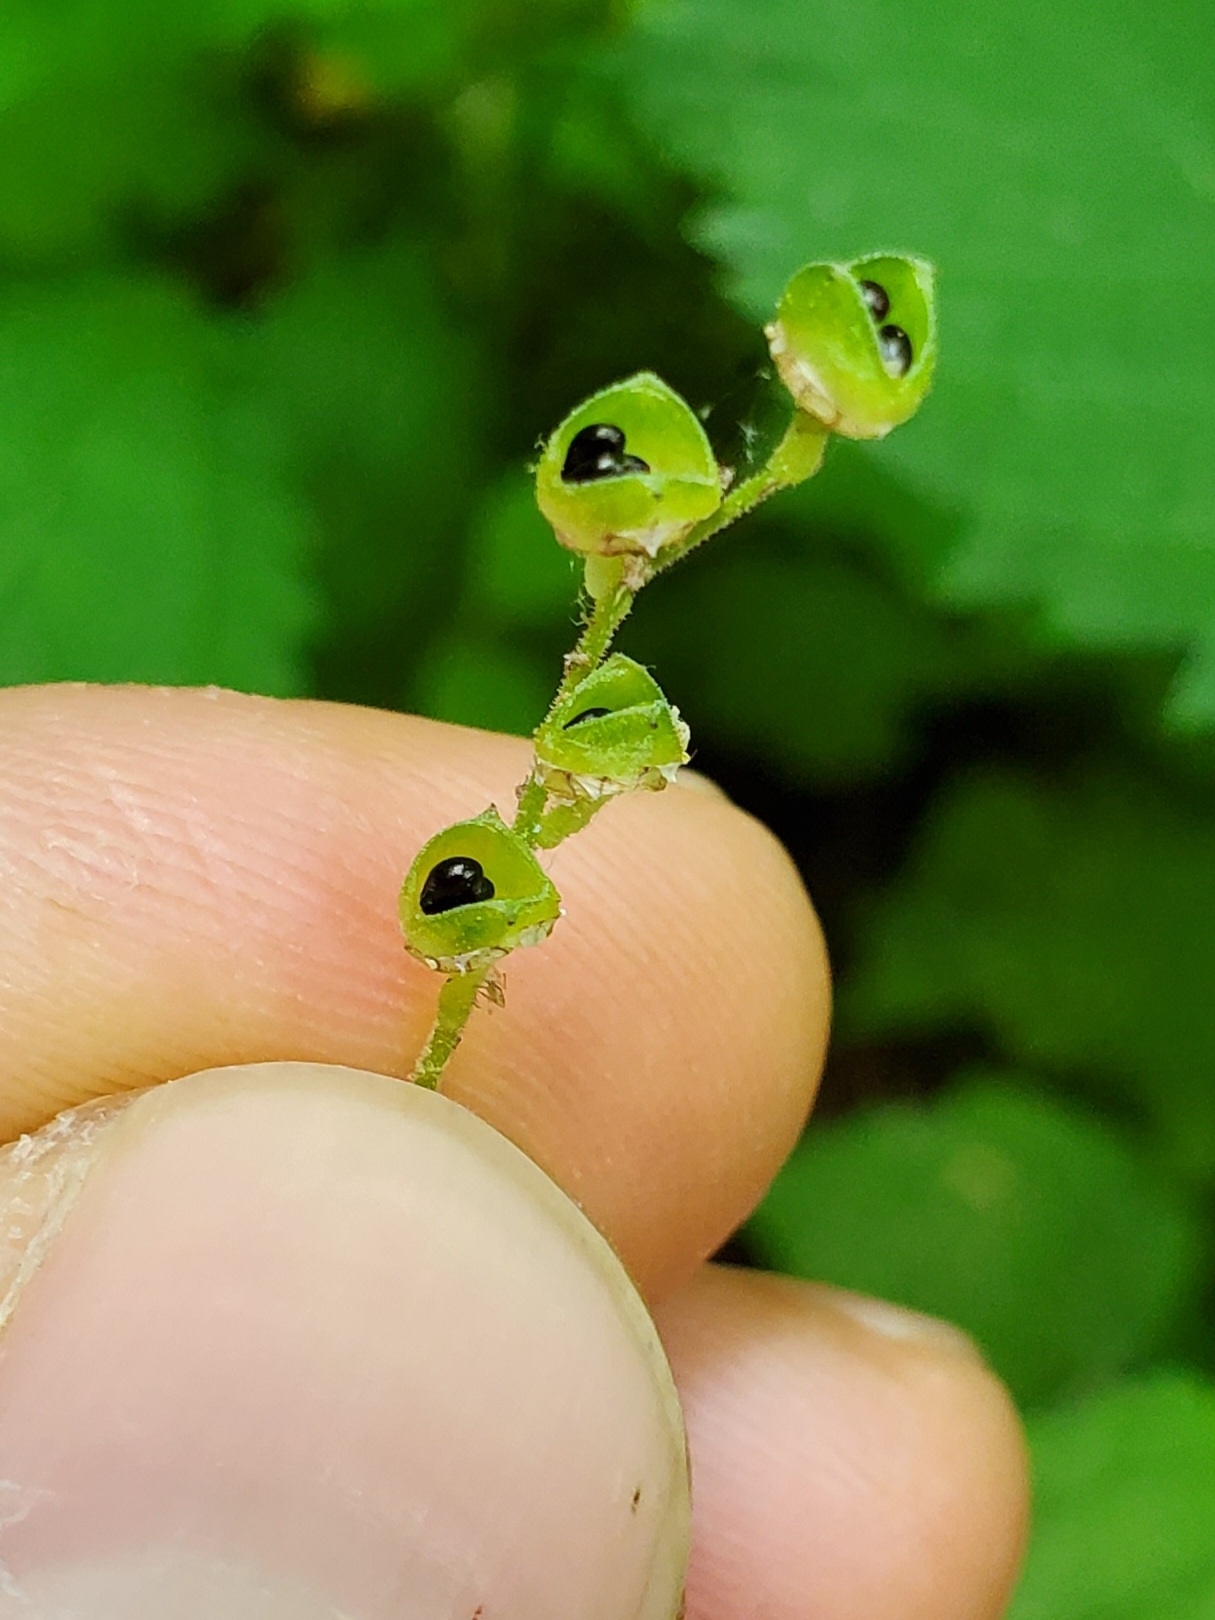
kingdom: Plantae
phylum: Tracheophyta
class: Magnoliopsida
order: Saxifragales
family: Saxifragaceae
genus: Mitella
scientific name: Mitella diphylla
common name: Coolwort
